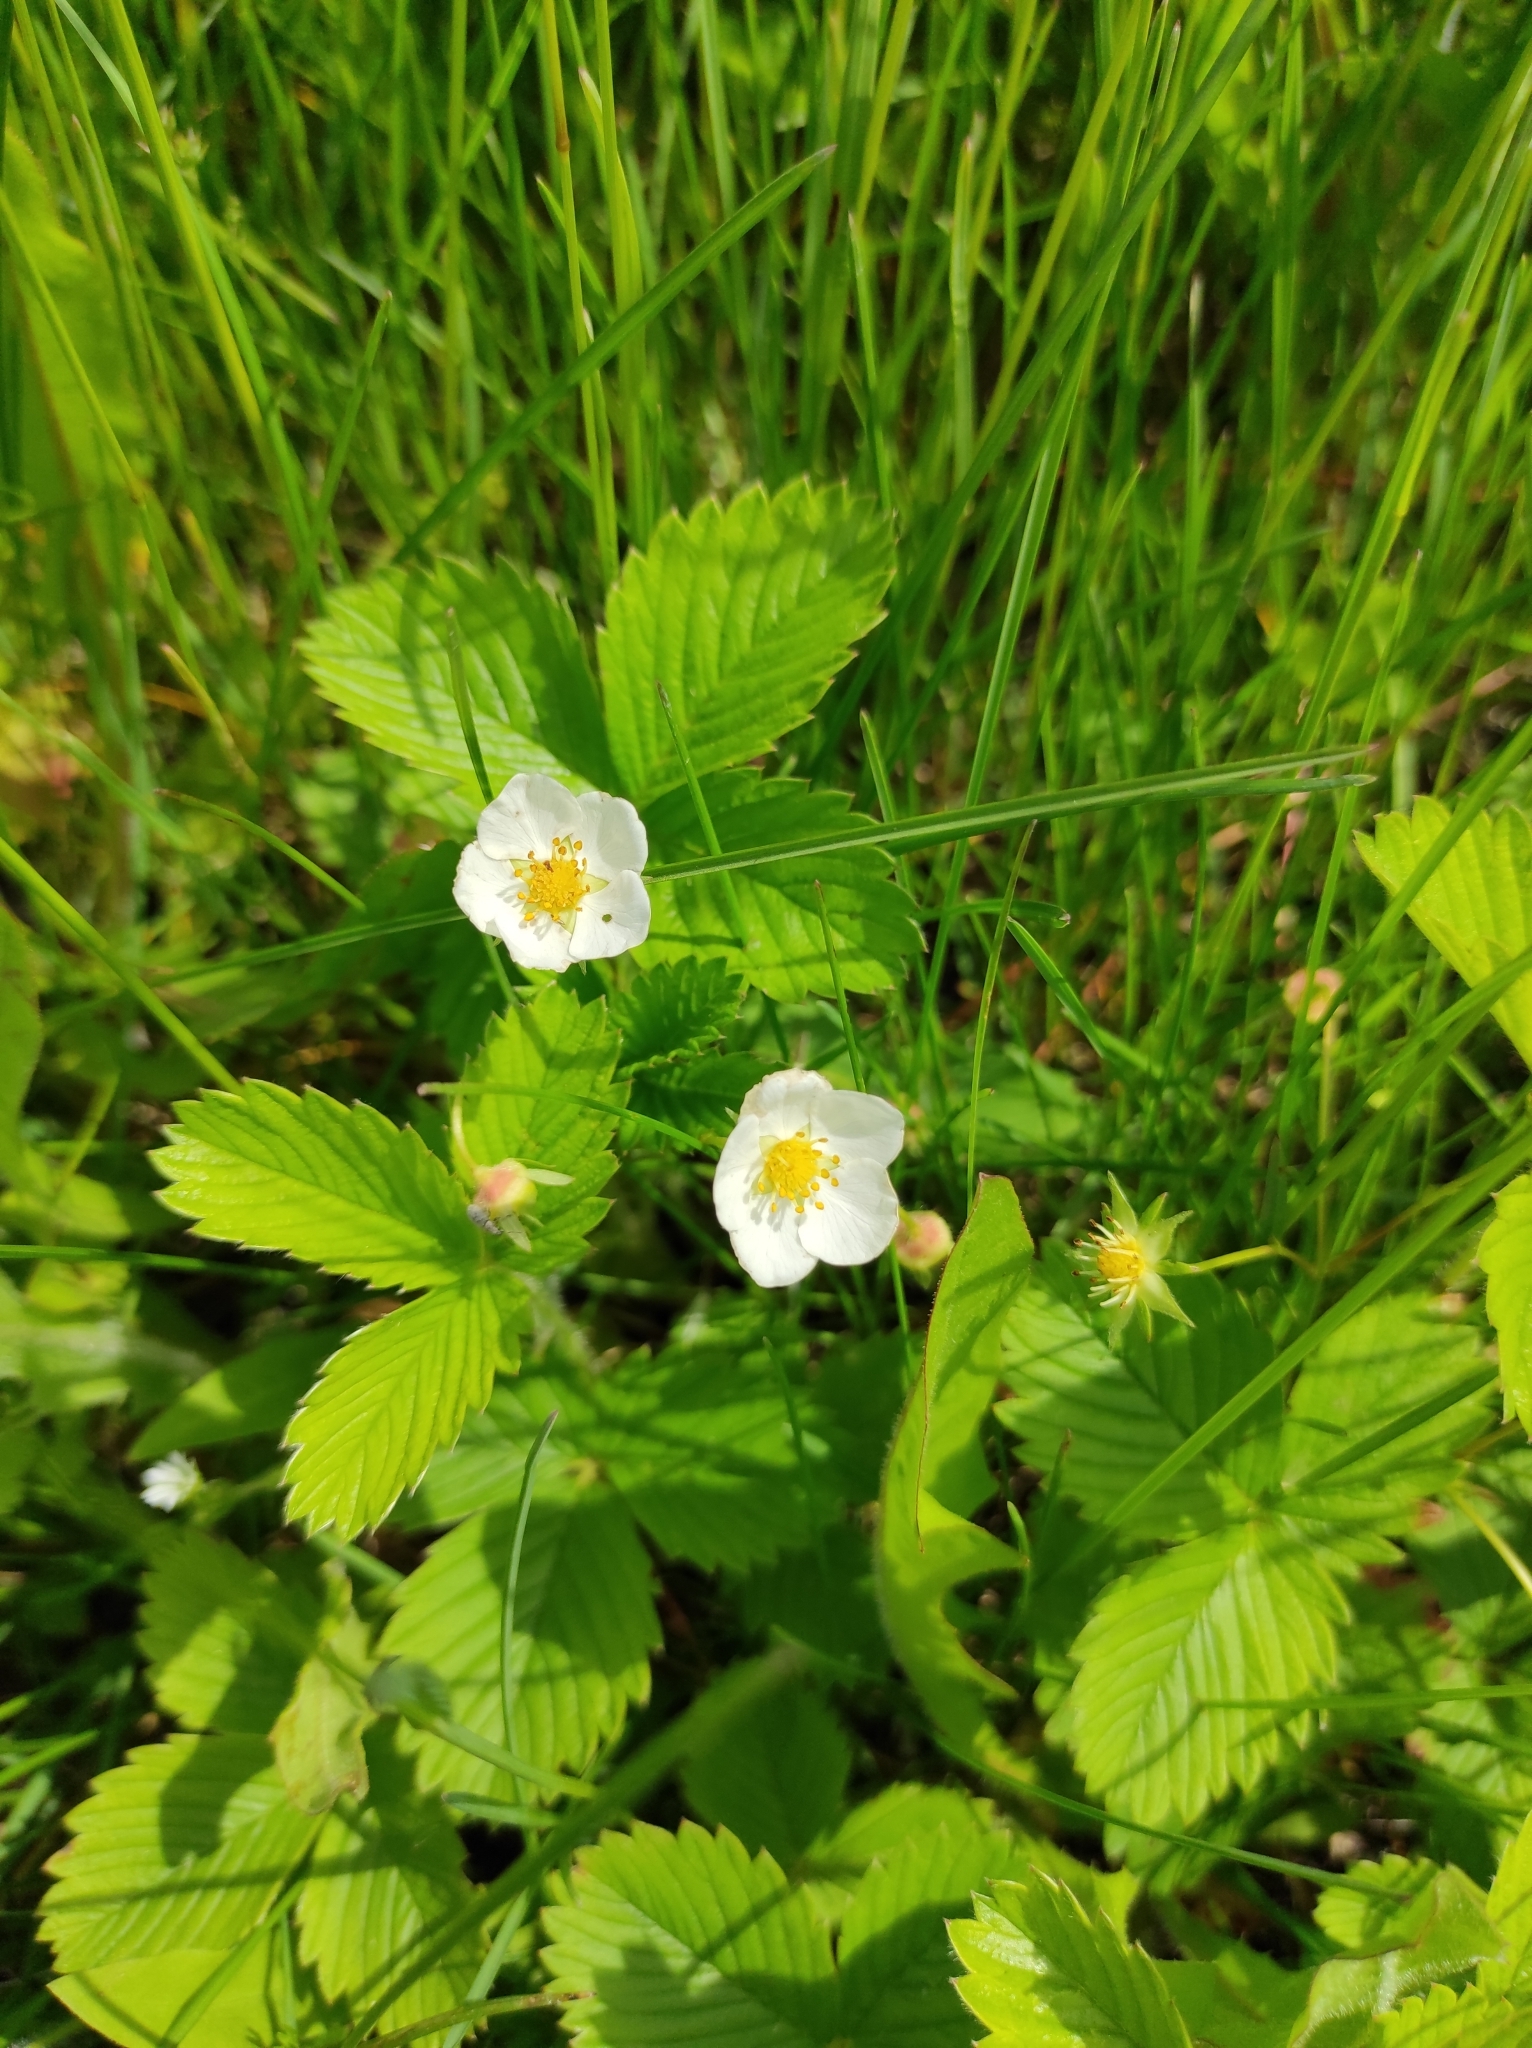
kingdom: Plantae
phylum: Tracheophyta
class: Magnoliopsida
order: Rosales
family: Rosaceae
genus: Fragaria
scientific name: Fragaria viridis
